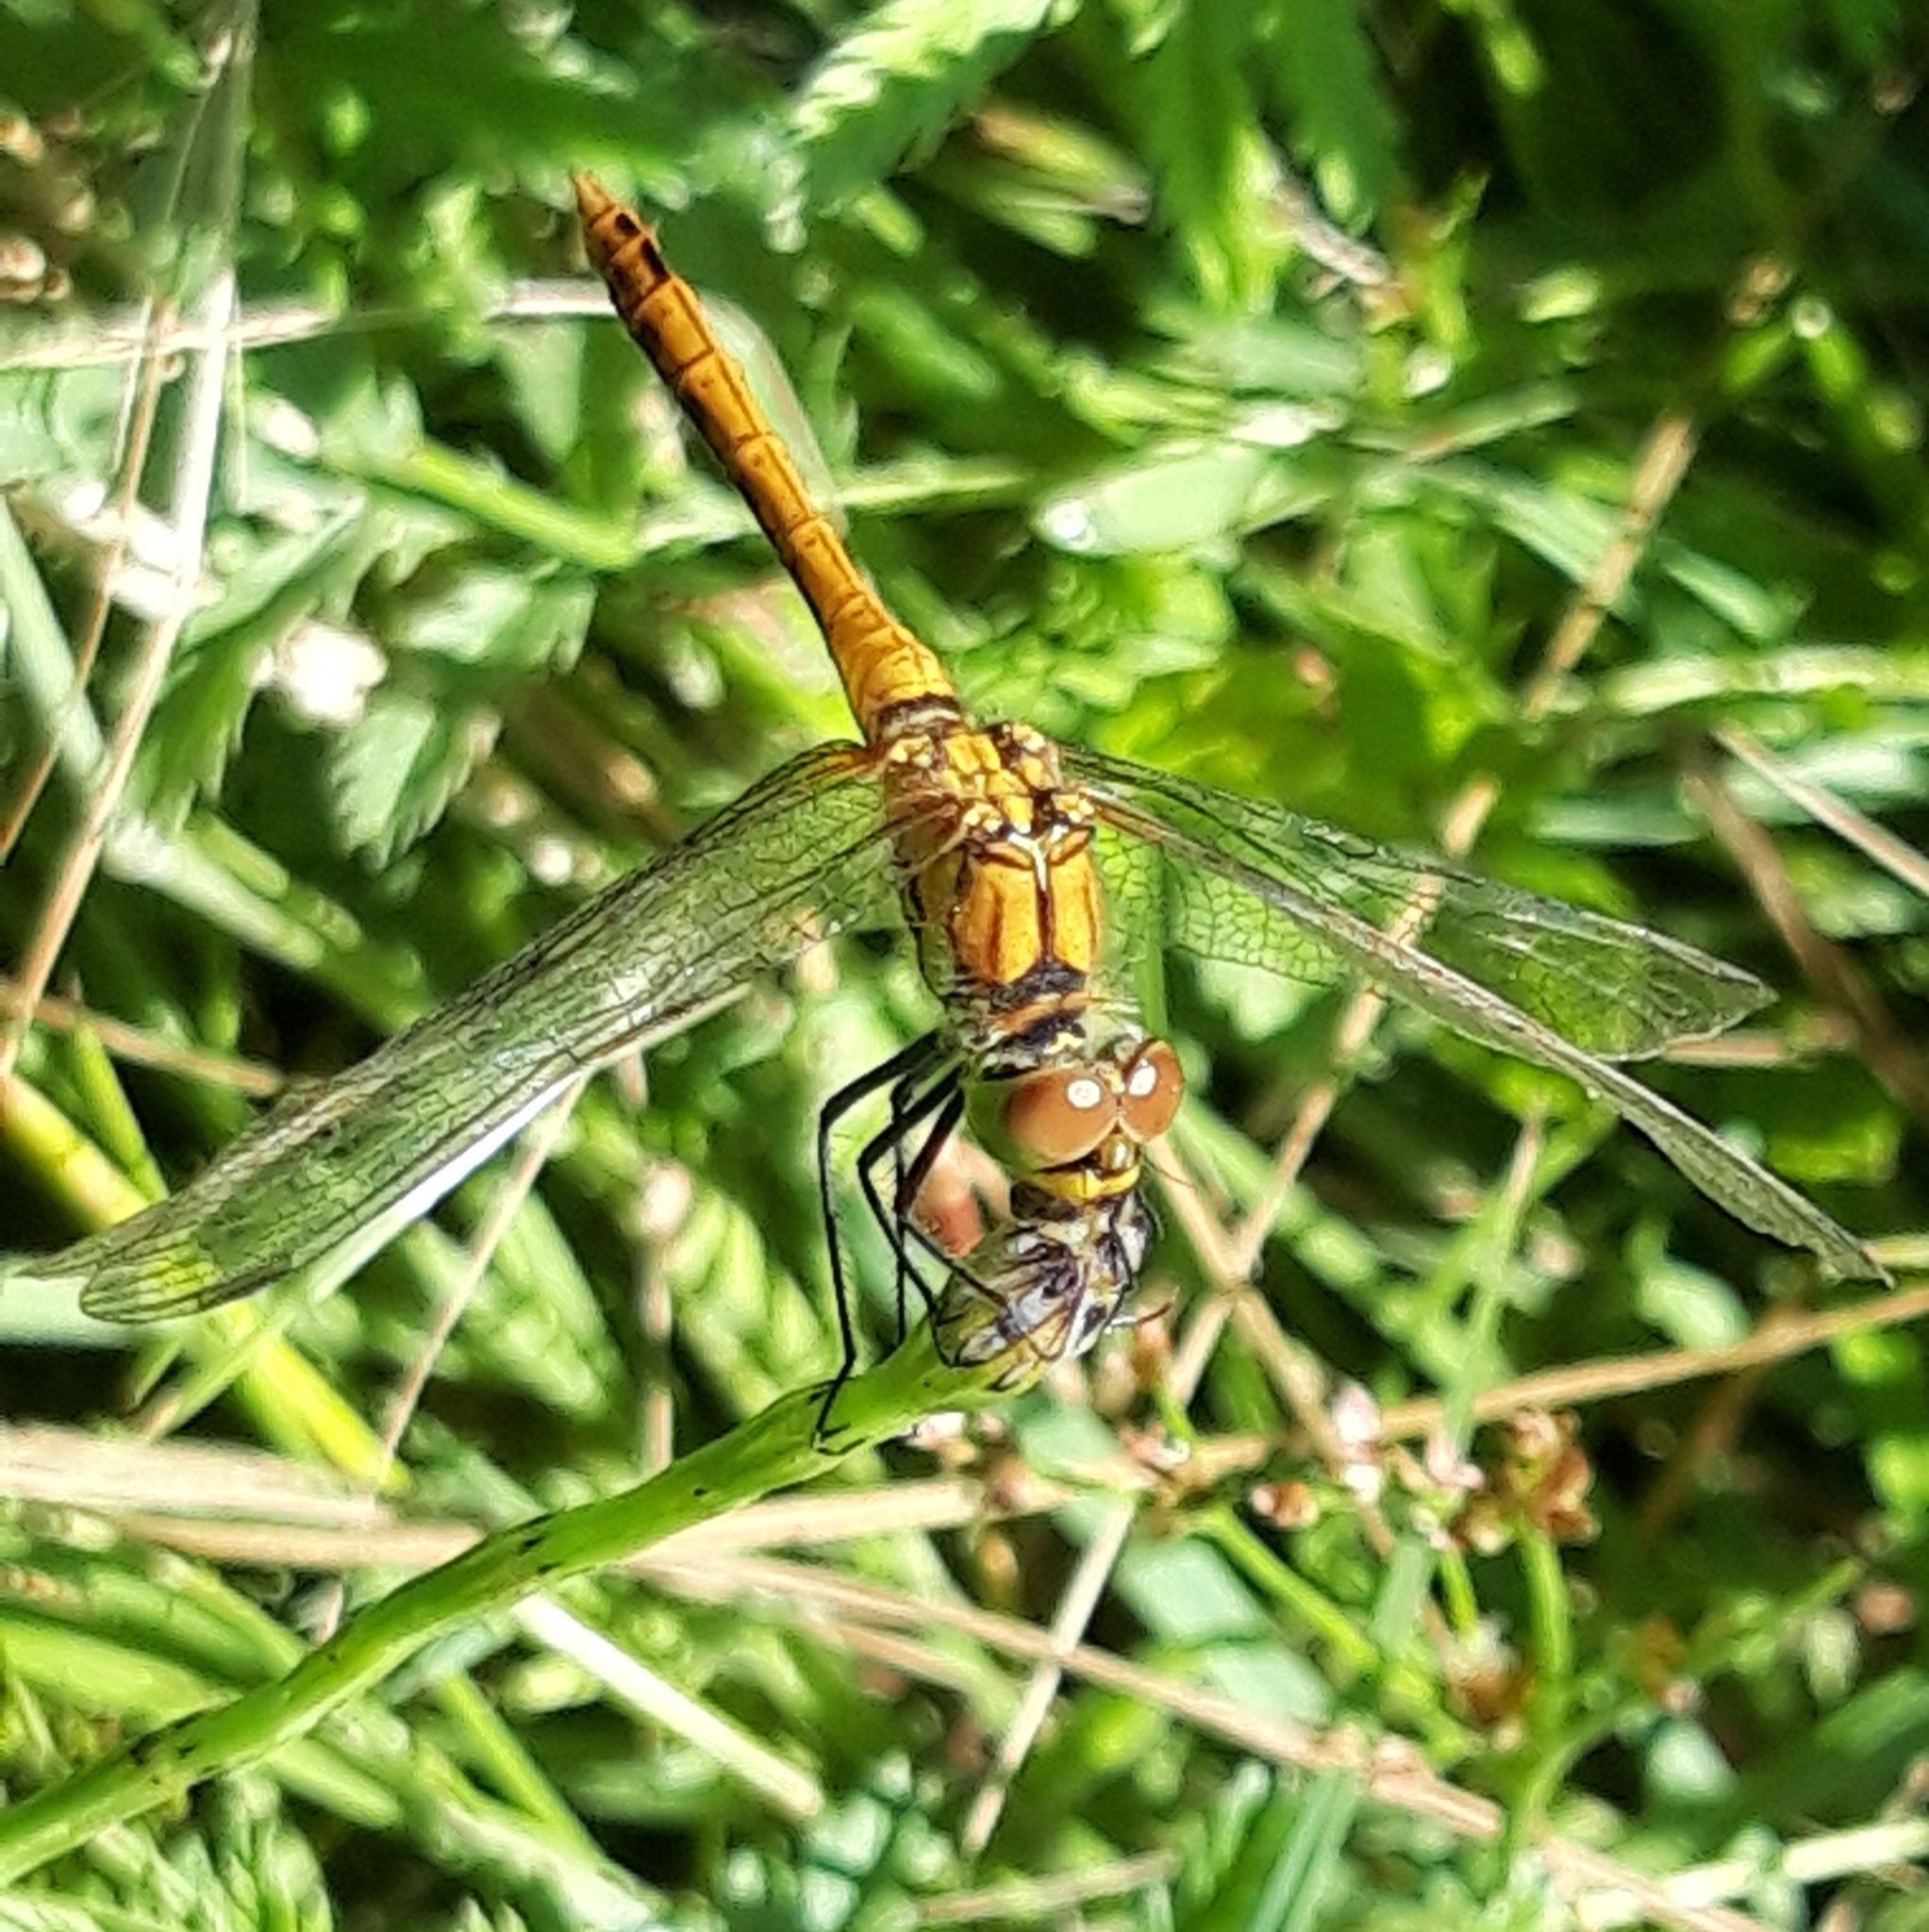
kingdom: Animalia
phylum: Arthropoda
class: Insecta
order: Odonata
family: Libellulidae
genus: Sympetrum
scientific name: Sympetrum sanguineum
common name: Ruddy darter
